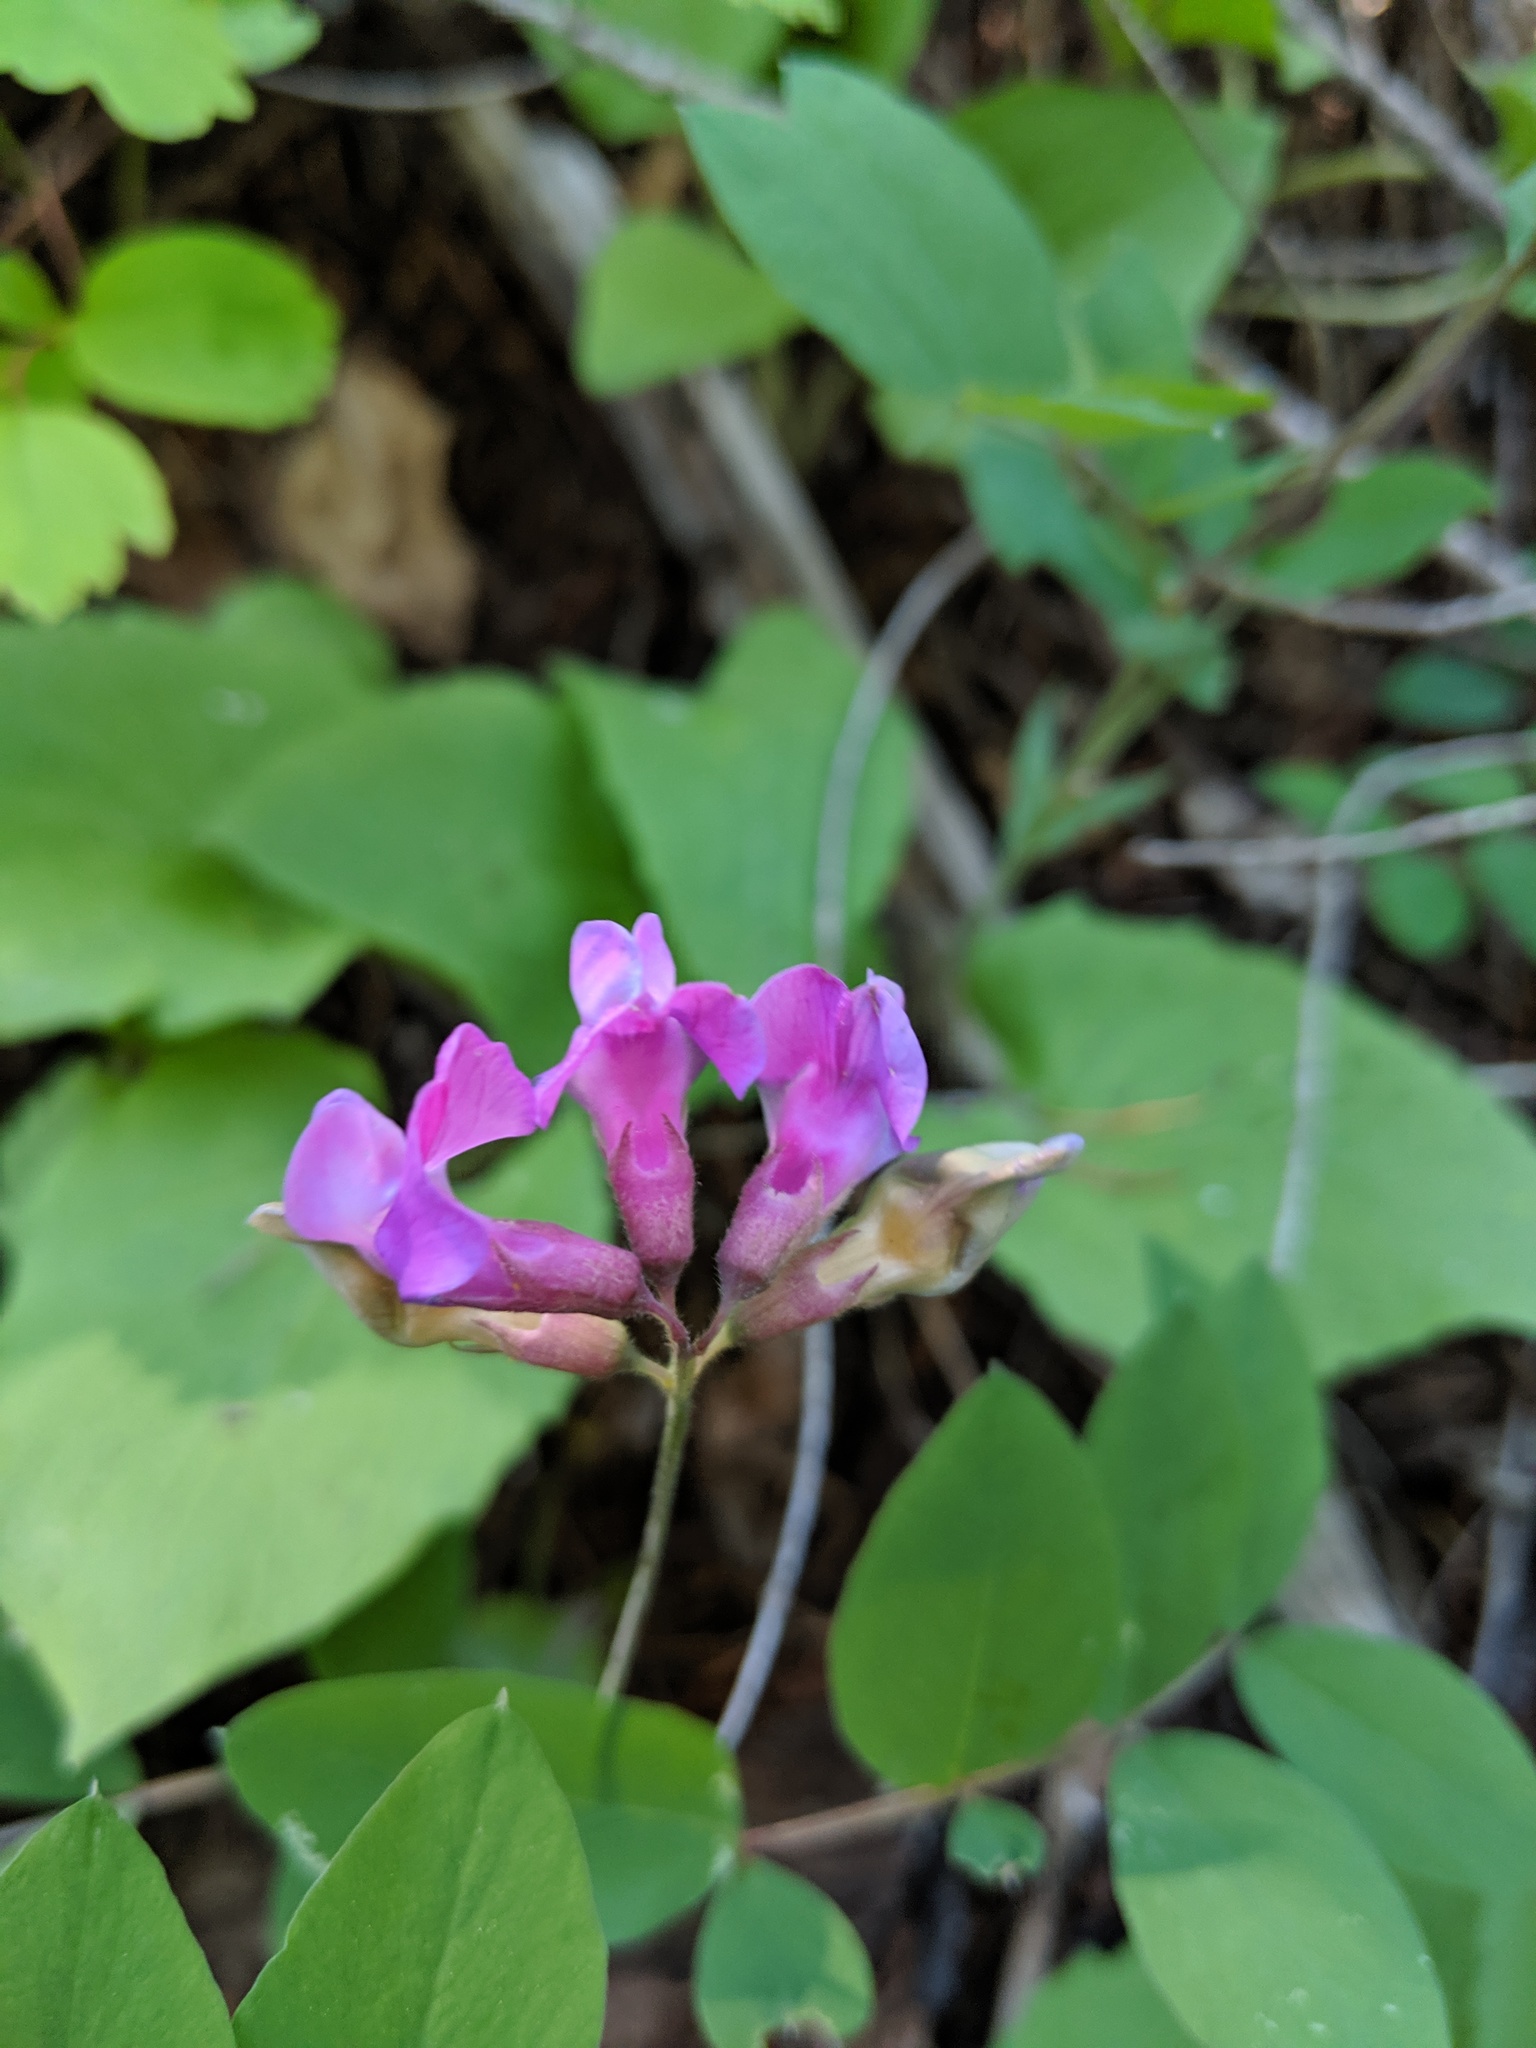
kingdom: Plantae
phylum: Tracheophyta
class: Magnoliopsida
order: Fabales
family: Fabaceae
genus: Lathyrus
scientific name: Lathyrus nevadensis
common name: Sierra nevada peavine
